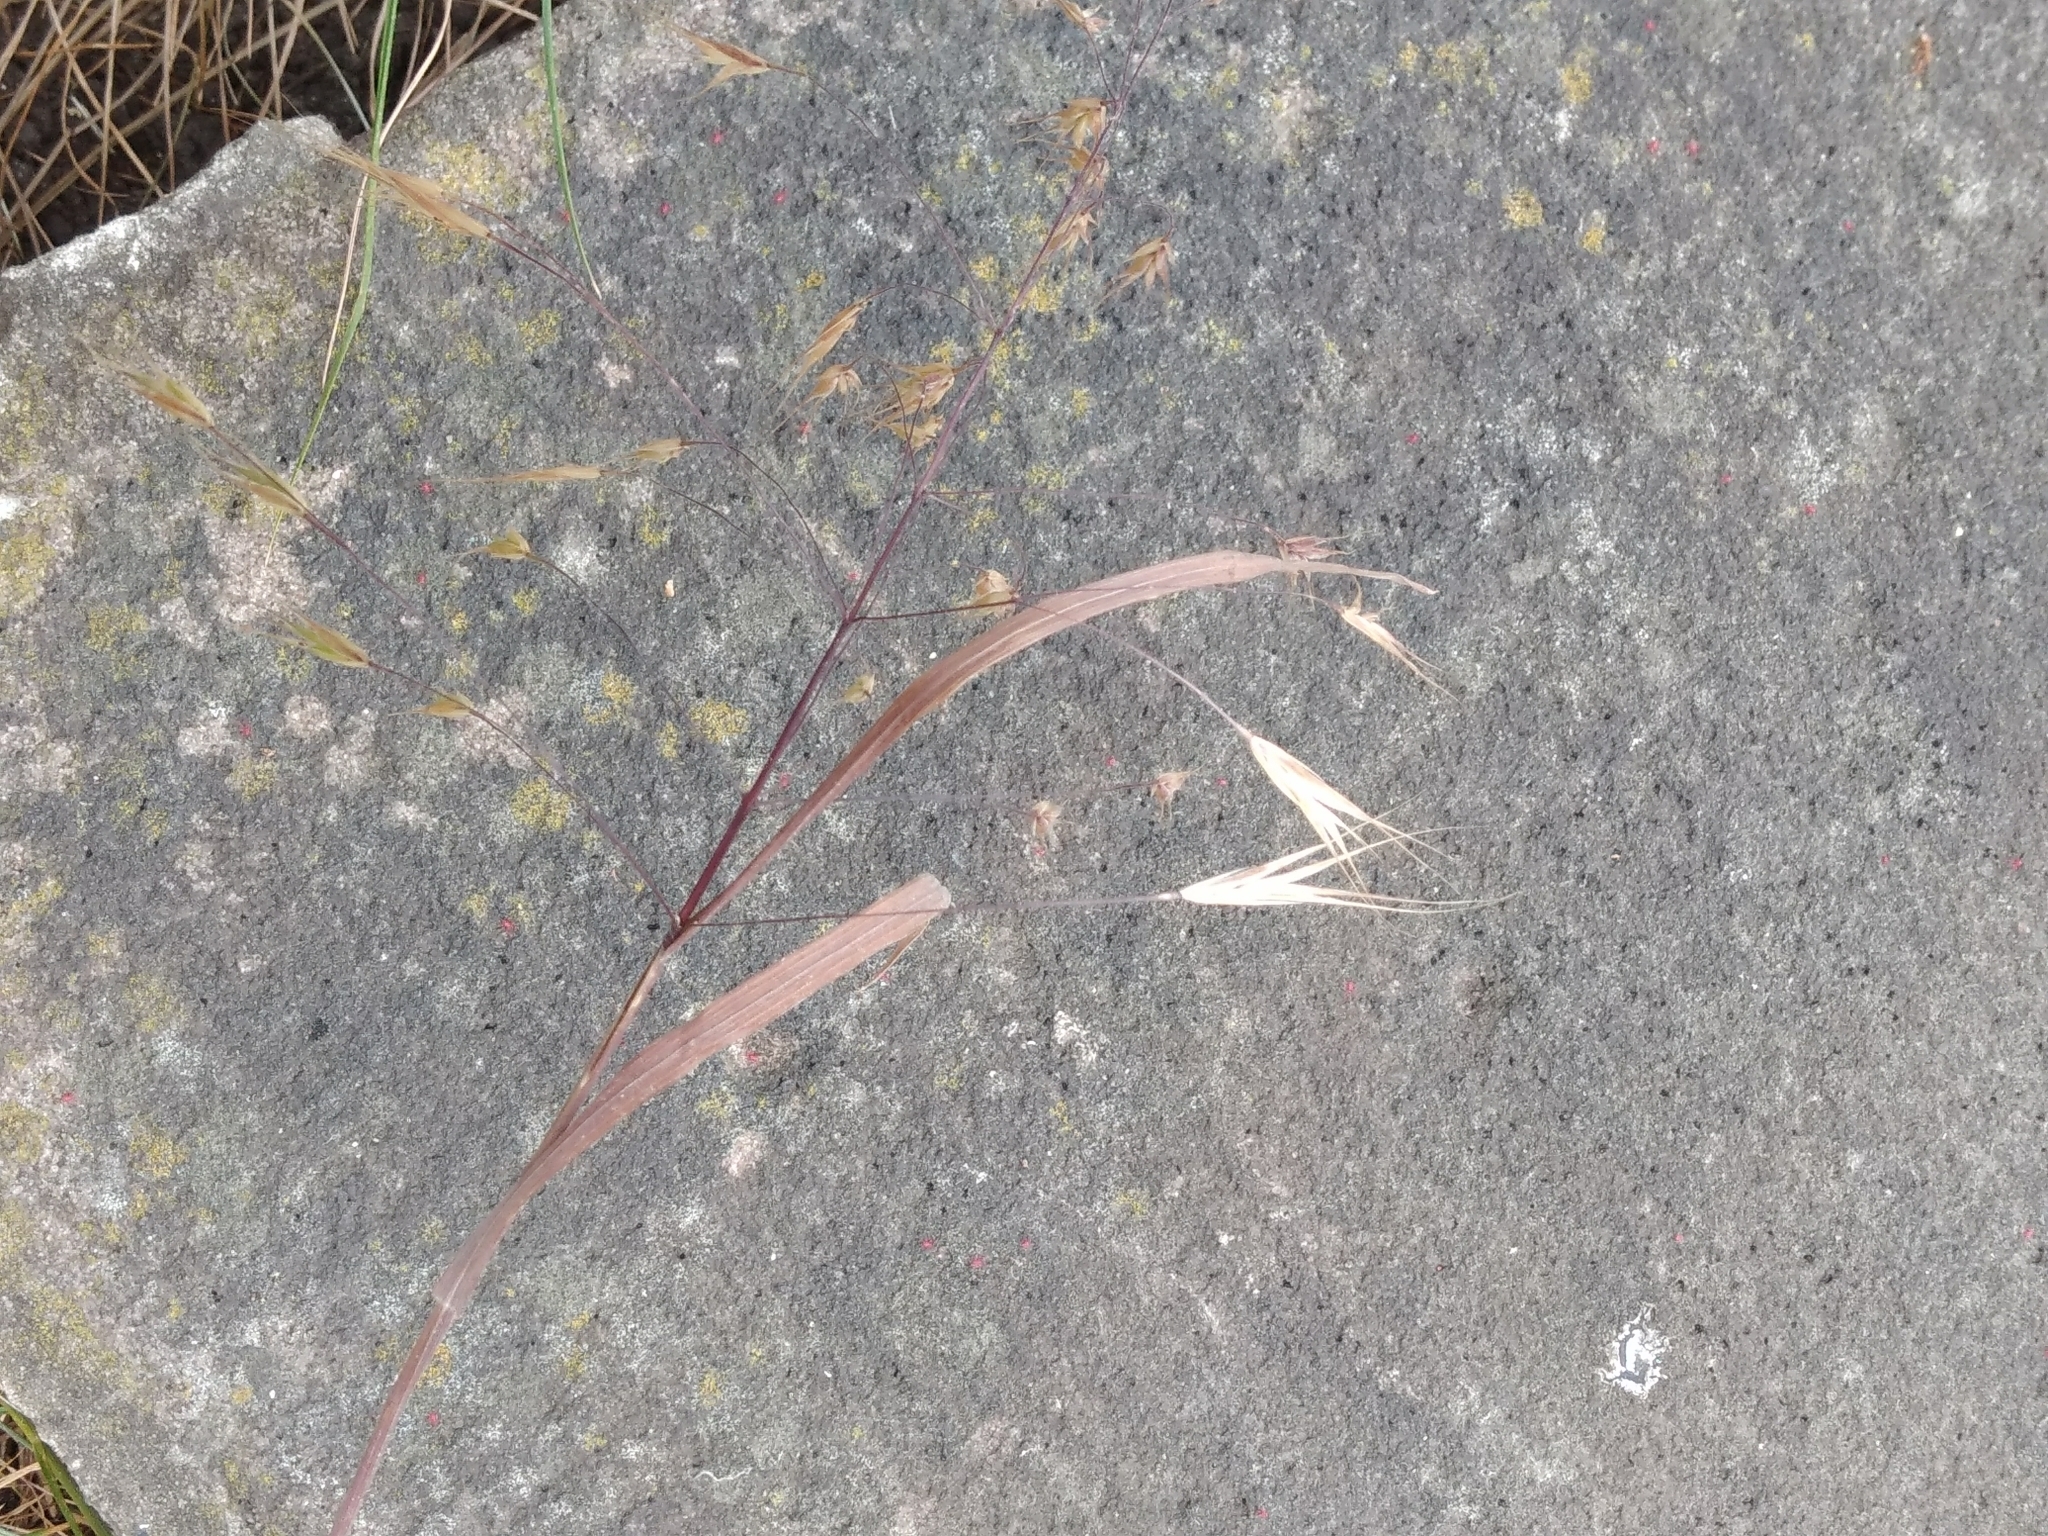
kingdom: Plantae
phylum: Tracheophyta
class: Liliopsida
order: Poales
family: Poaceae
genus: Bromus
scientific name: Bromus sterilis
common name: Poverty brome
